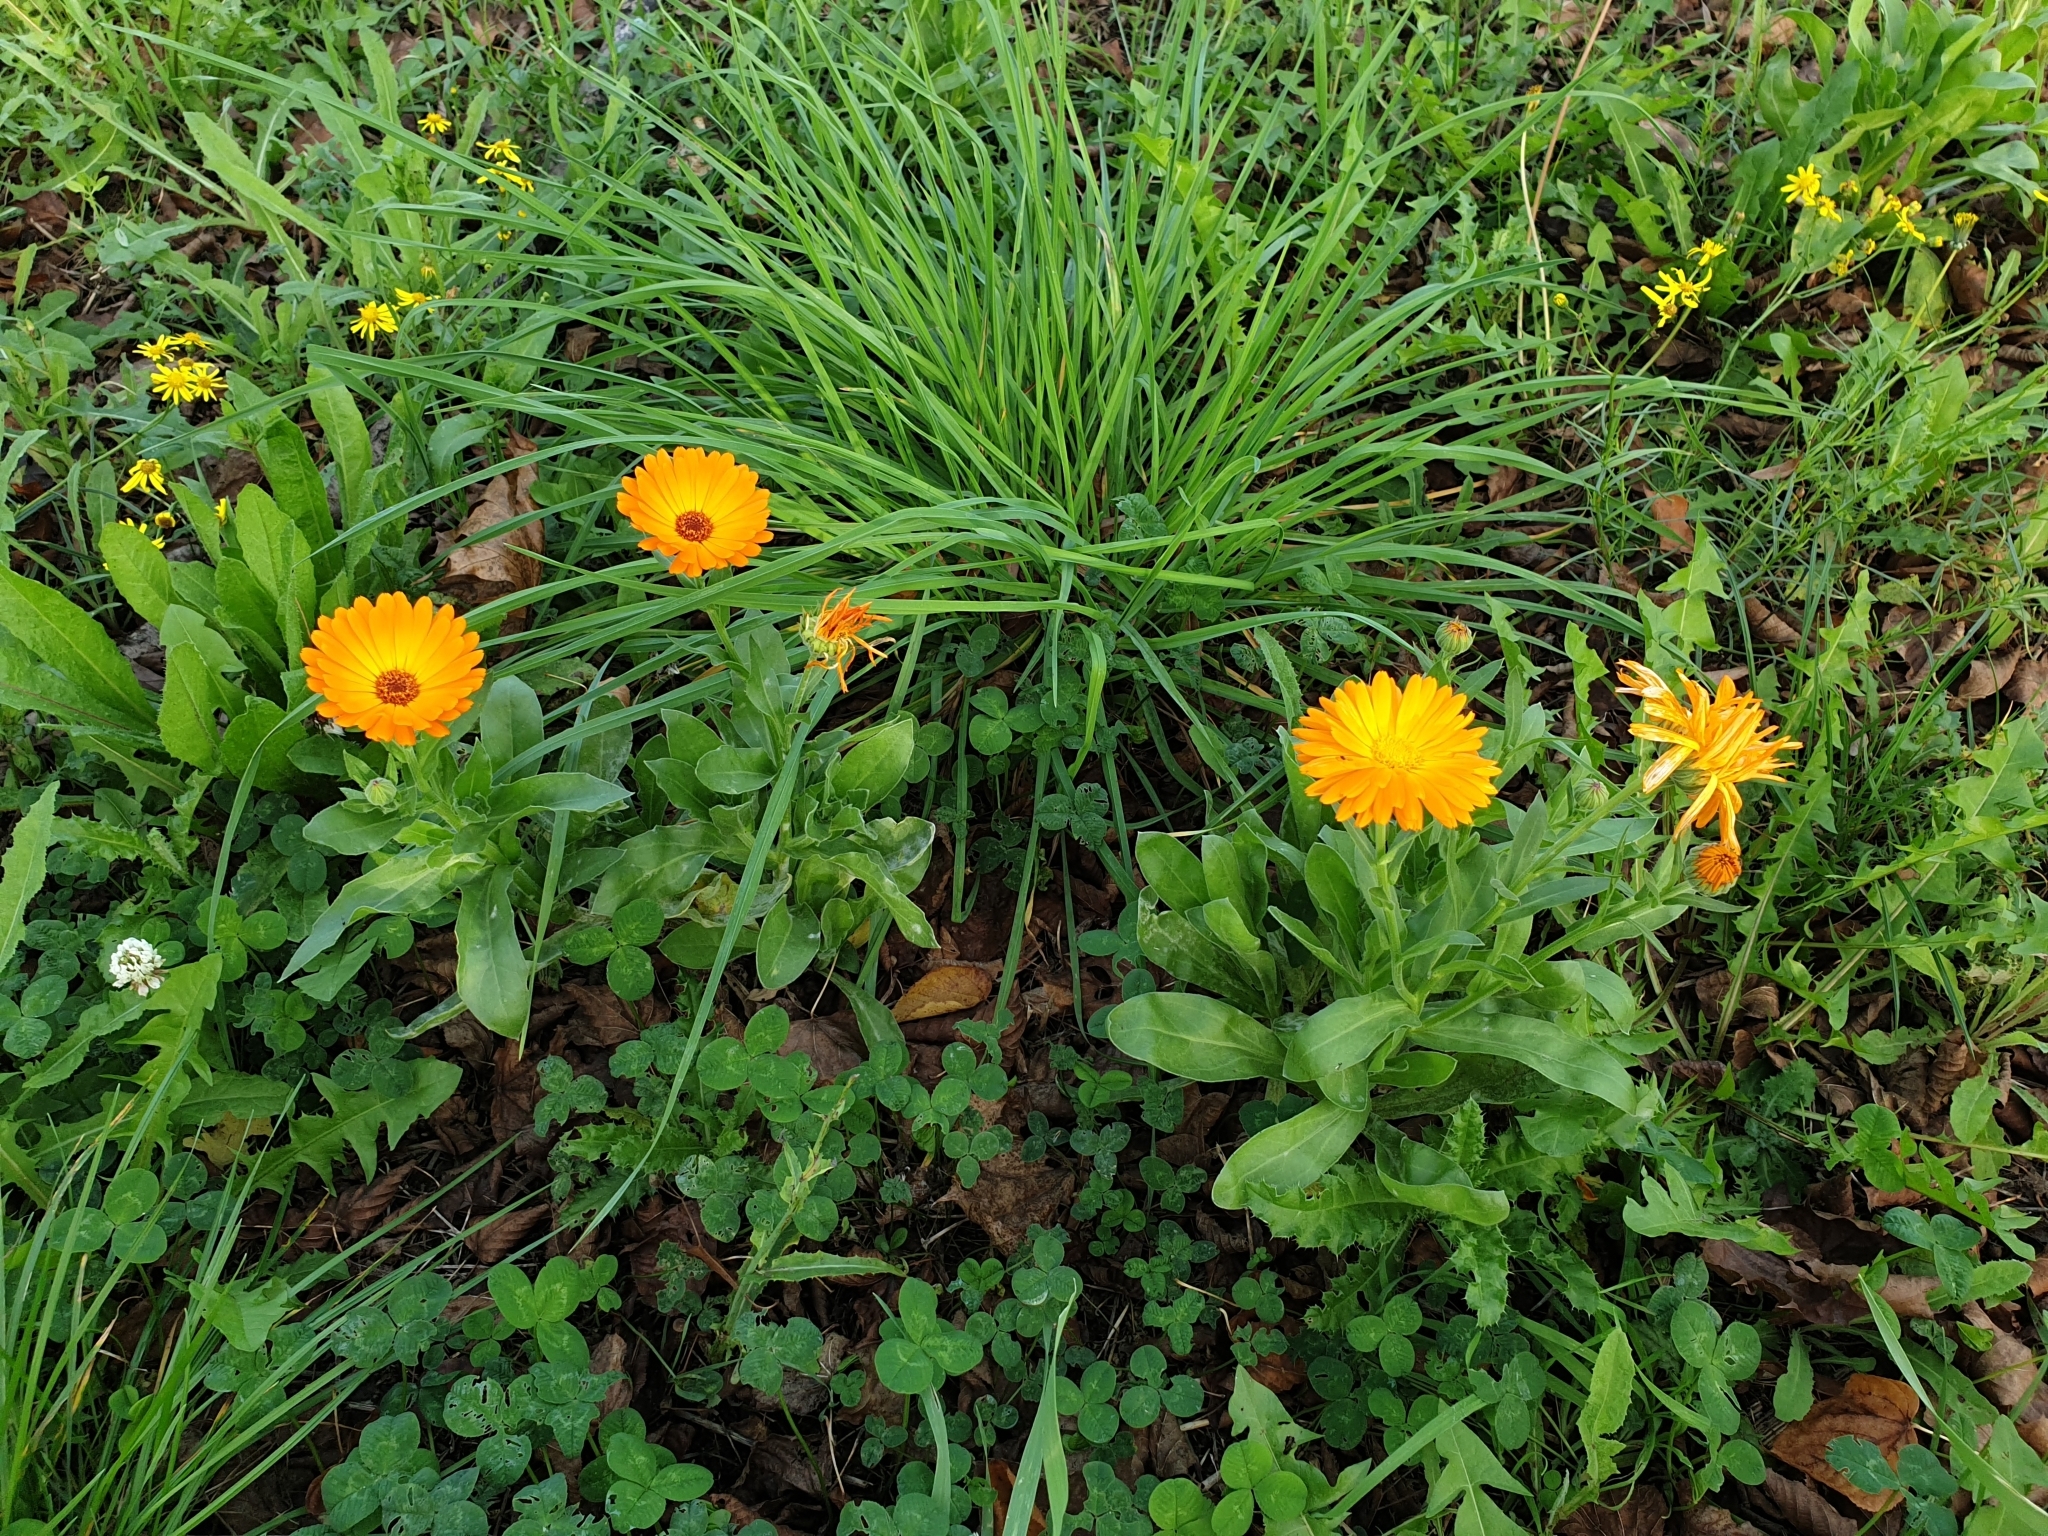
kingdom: Plantae
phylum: Tracheophyta
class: Magnoliopsida
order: Asterales
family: Asteraceae
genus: Calendula
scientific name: Calendula officinalis
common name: Pot marigold
